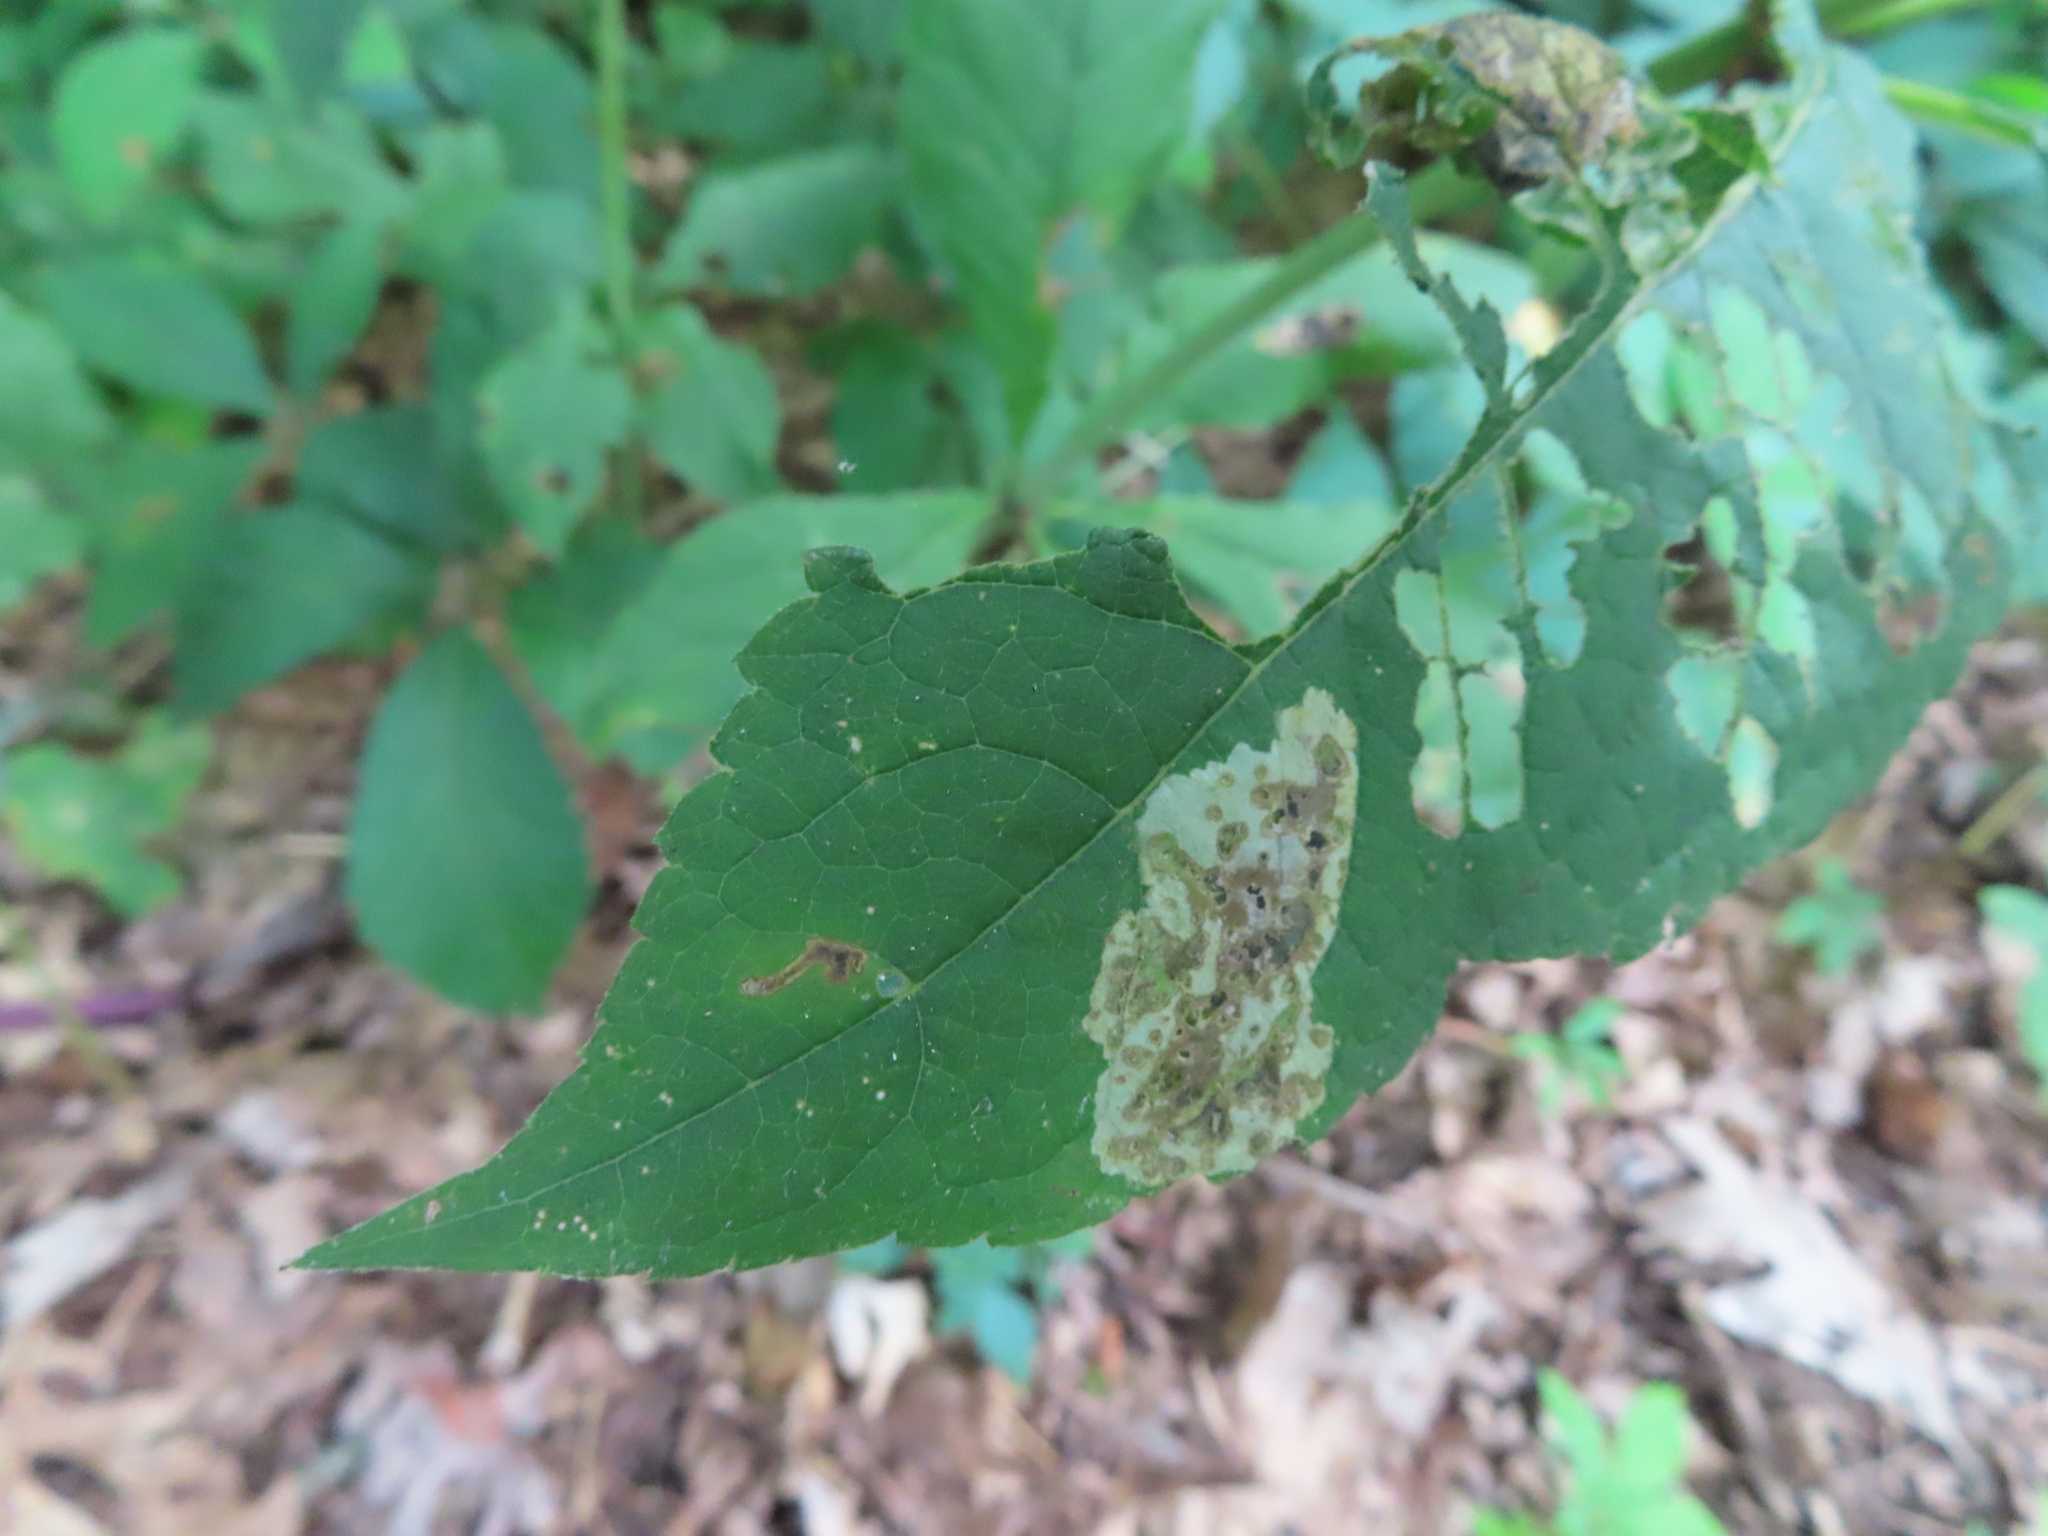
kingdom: Animalia
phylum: Arthropoda
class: Insecta
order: Diptera
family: Agromyzidae
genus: Calycomyza
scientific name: Calycomyza flavinotum
